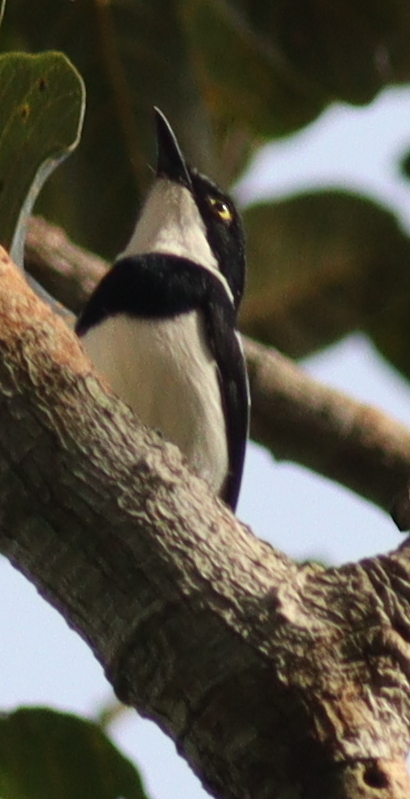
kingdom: Animalia
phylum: Chordata
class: Aves
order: Passeriformes
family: Platysteiridae
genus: Batis
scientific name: Batis poensis
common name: Fernando po batis
